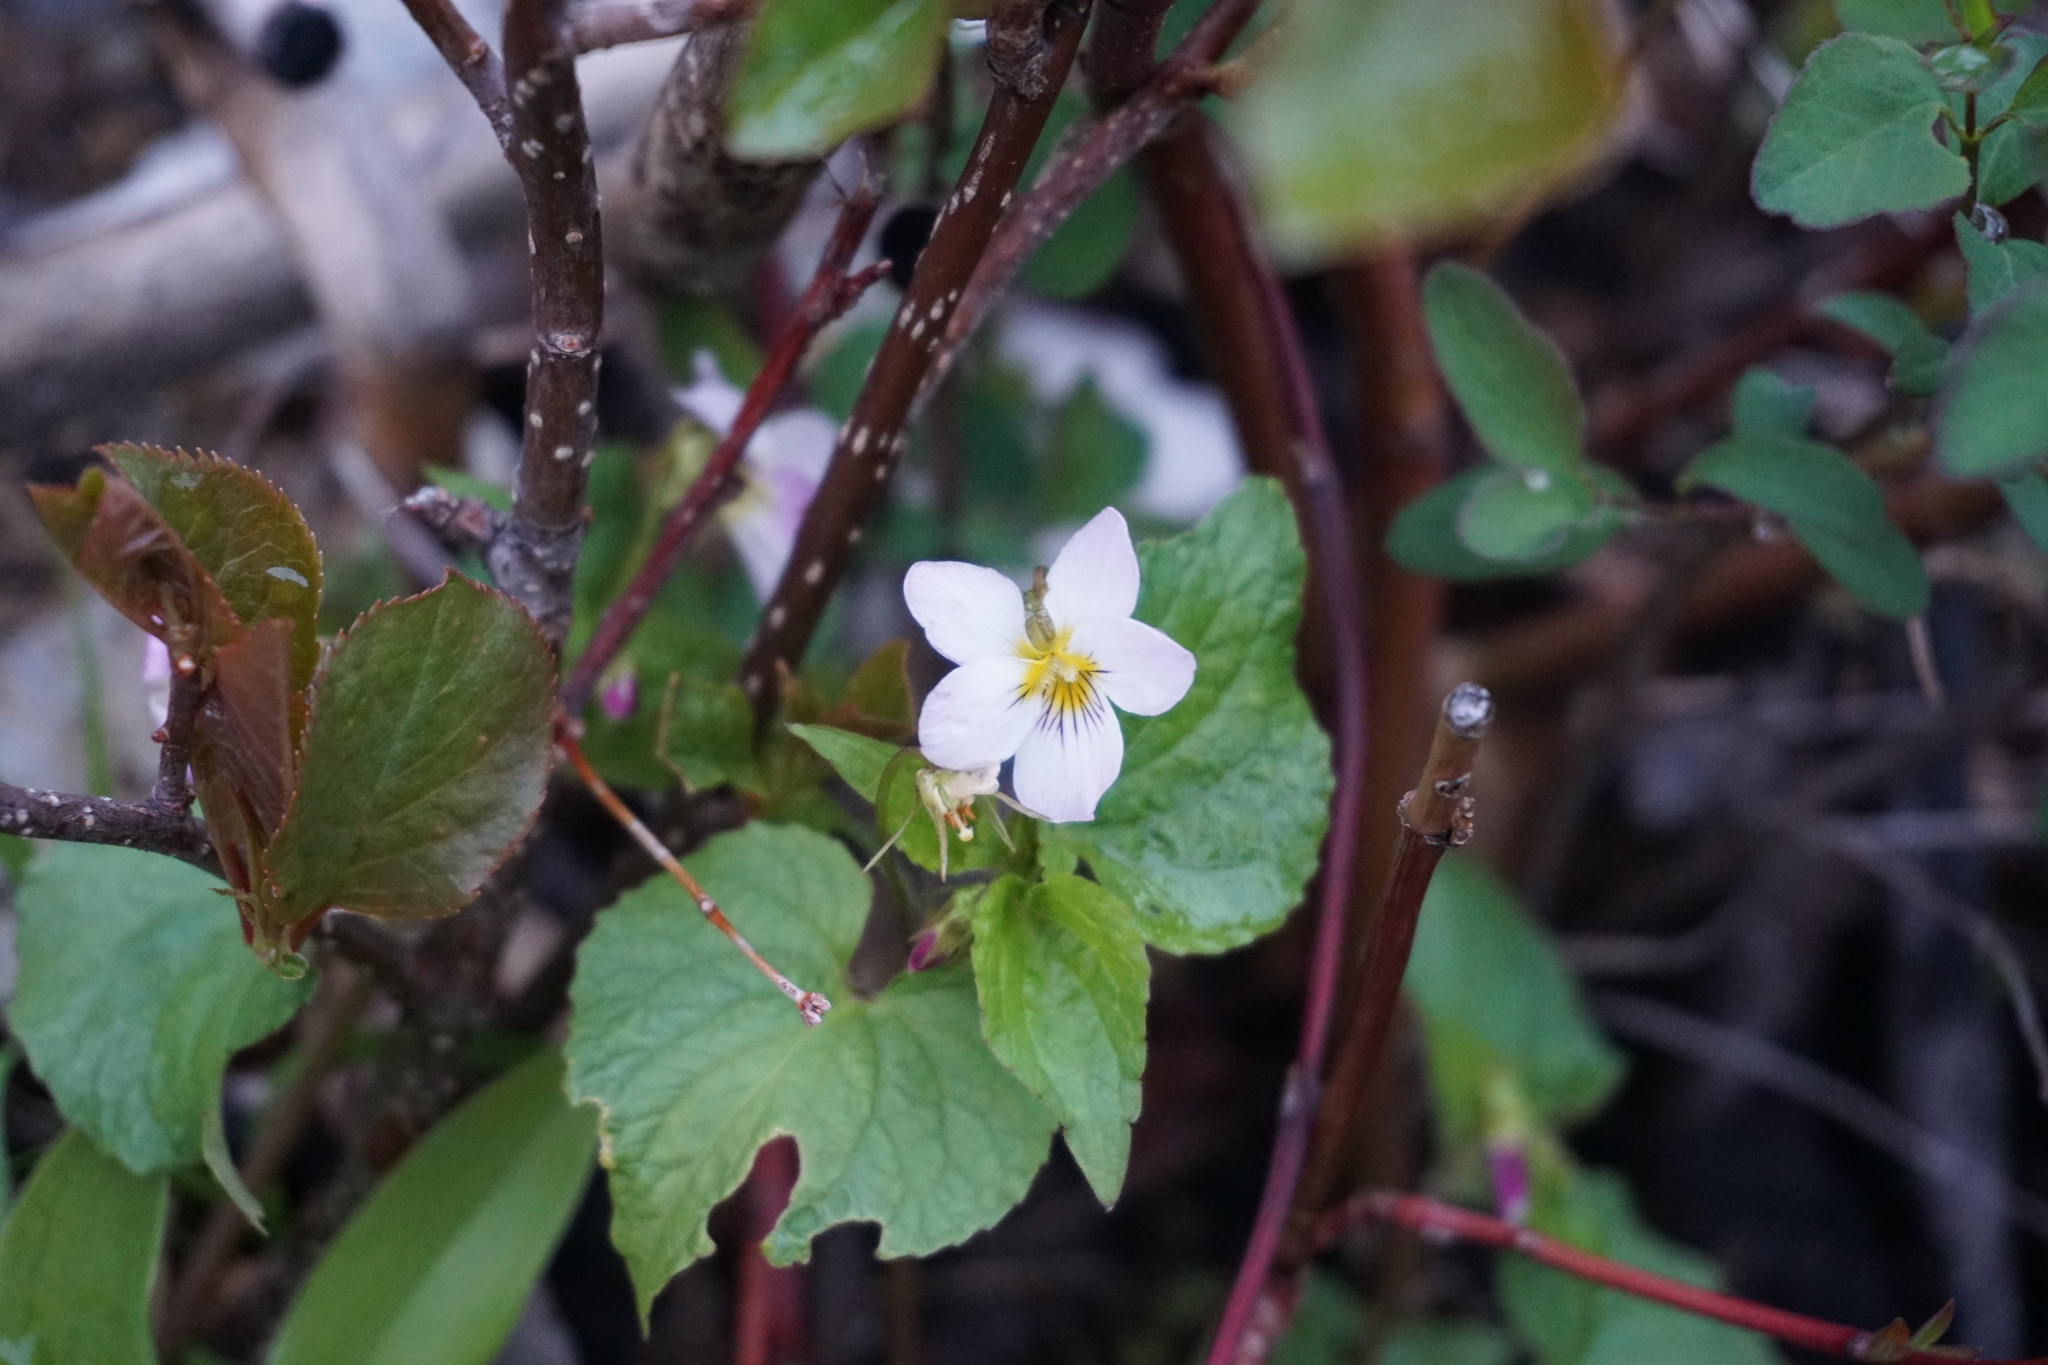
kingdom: Plantae
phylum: Tracheophyta
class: Magnoliopsida
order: Malpighiales
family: Violaceae
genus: Viola
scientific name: Viola canadensis
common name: Canada violet
